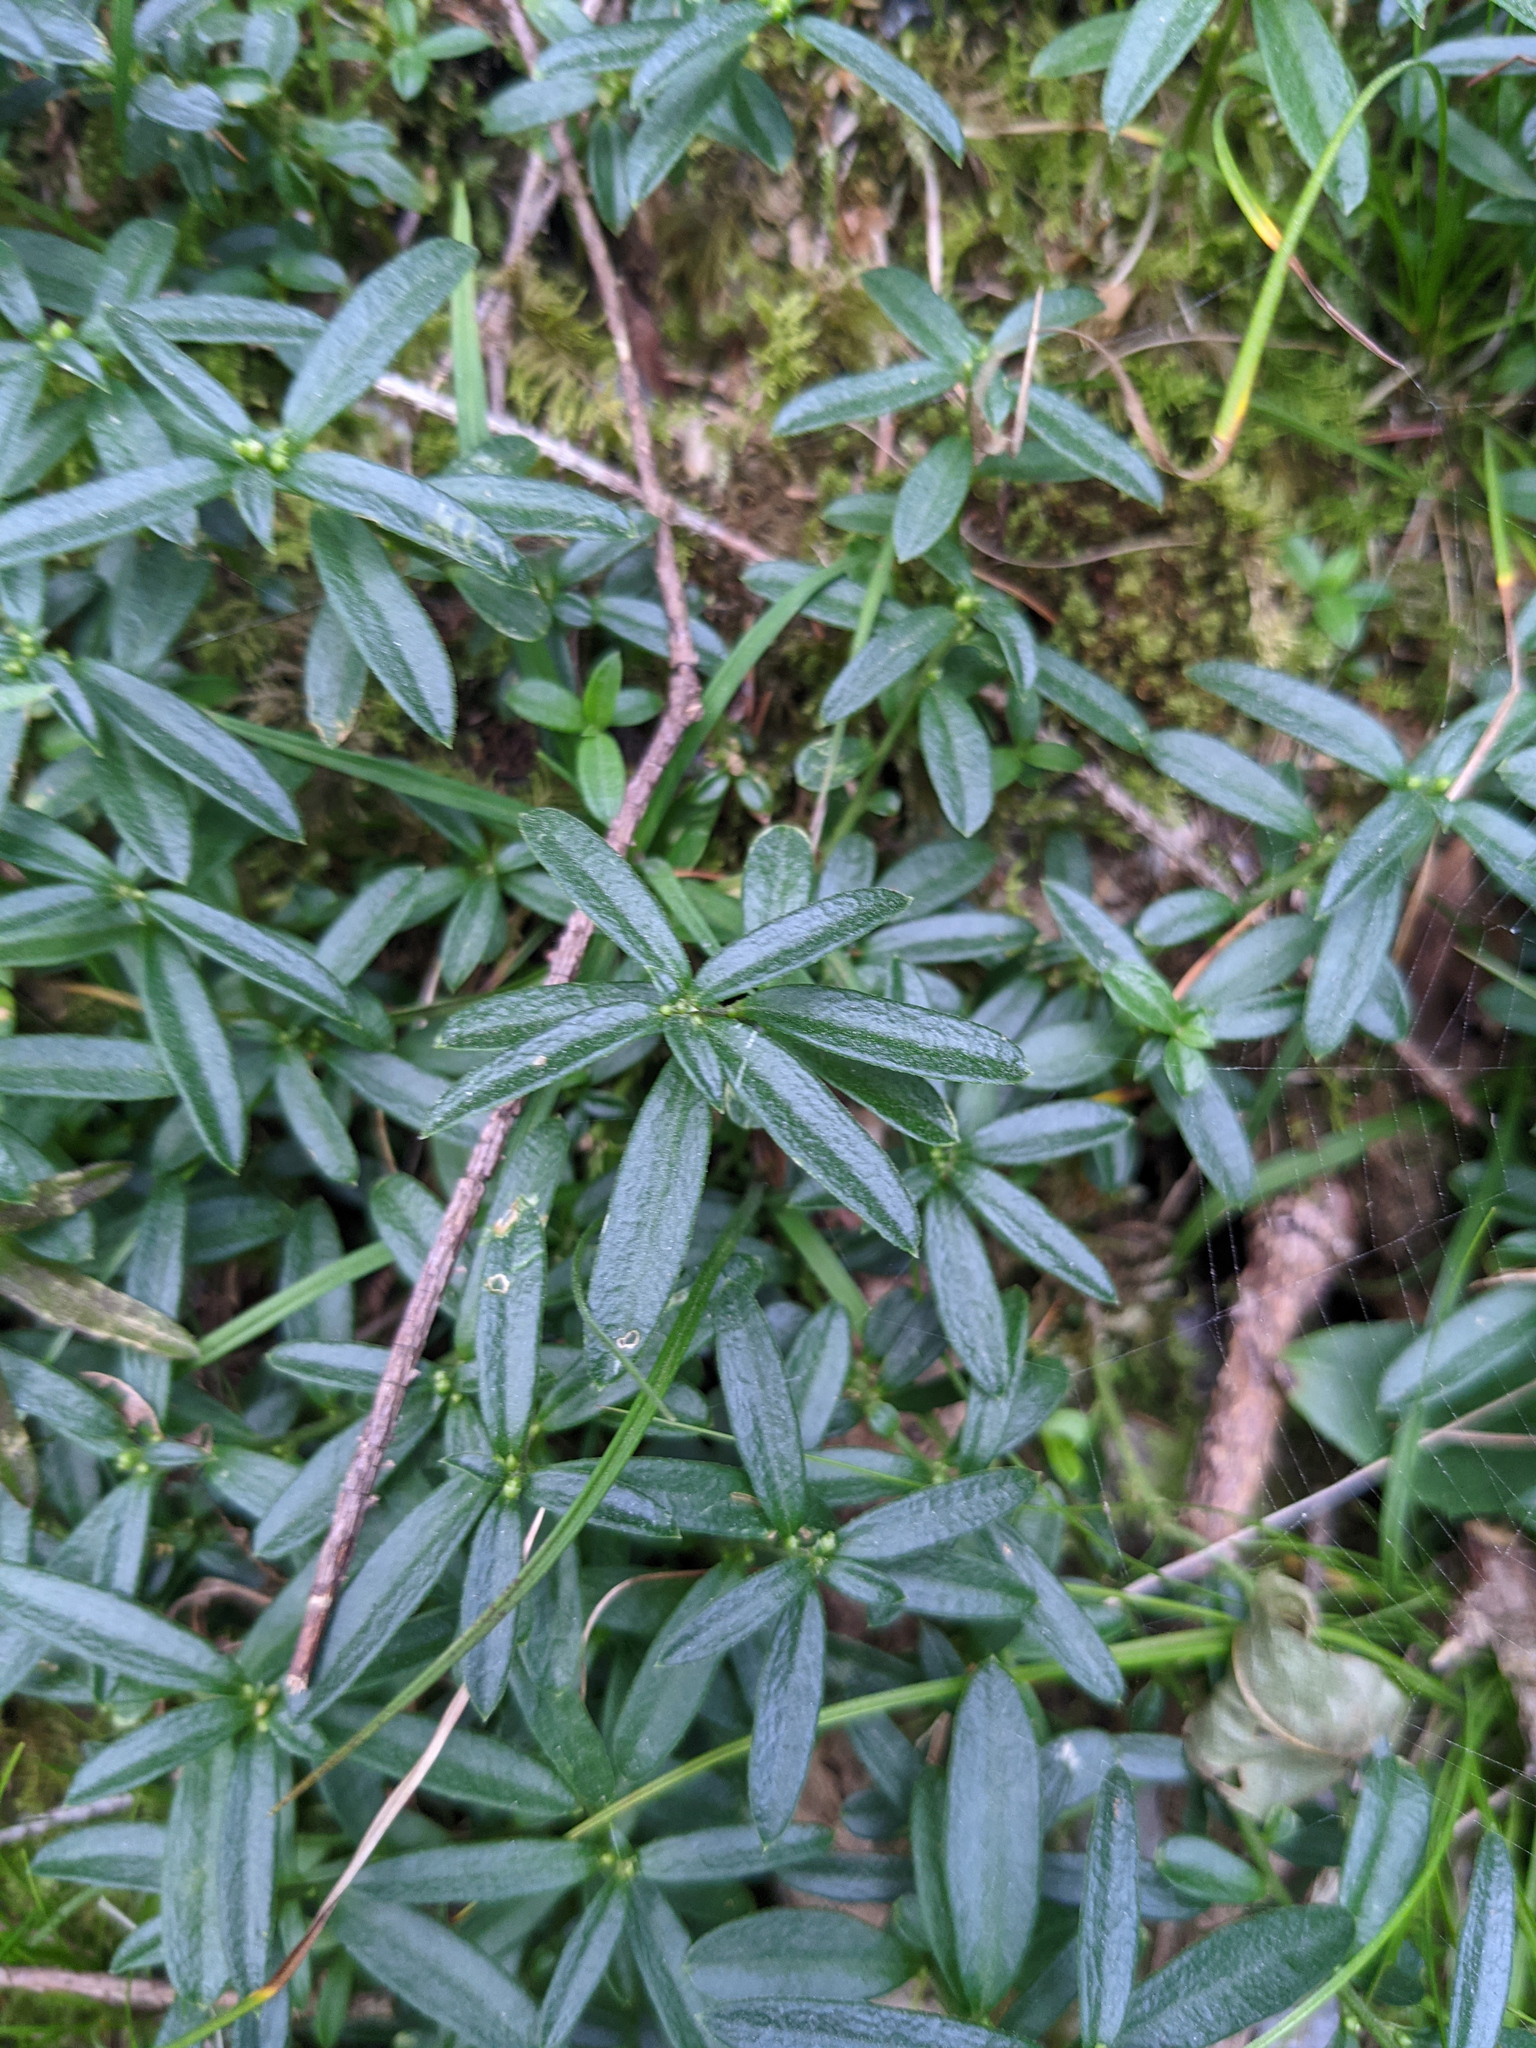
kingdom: Plantae
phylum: Tracheophyta
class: Magnoliopsida
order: Fabales
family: Polygalaceae
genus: Polygaloides
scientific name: Polygaloides chamaebuxus
